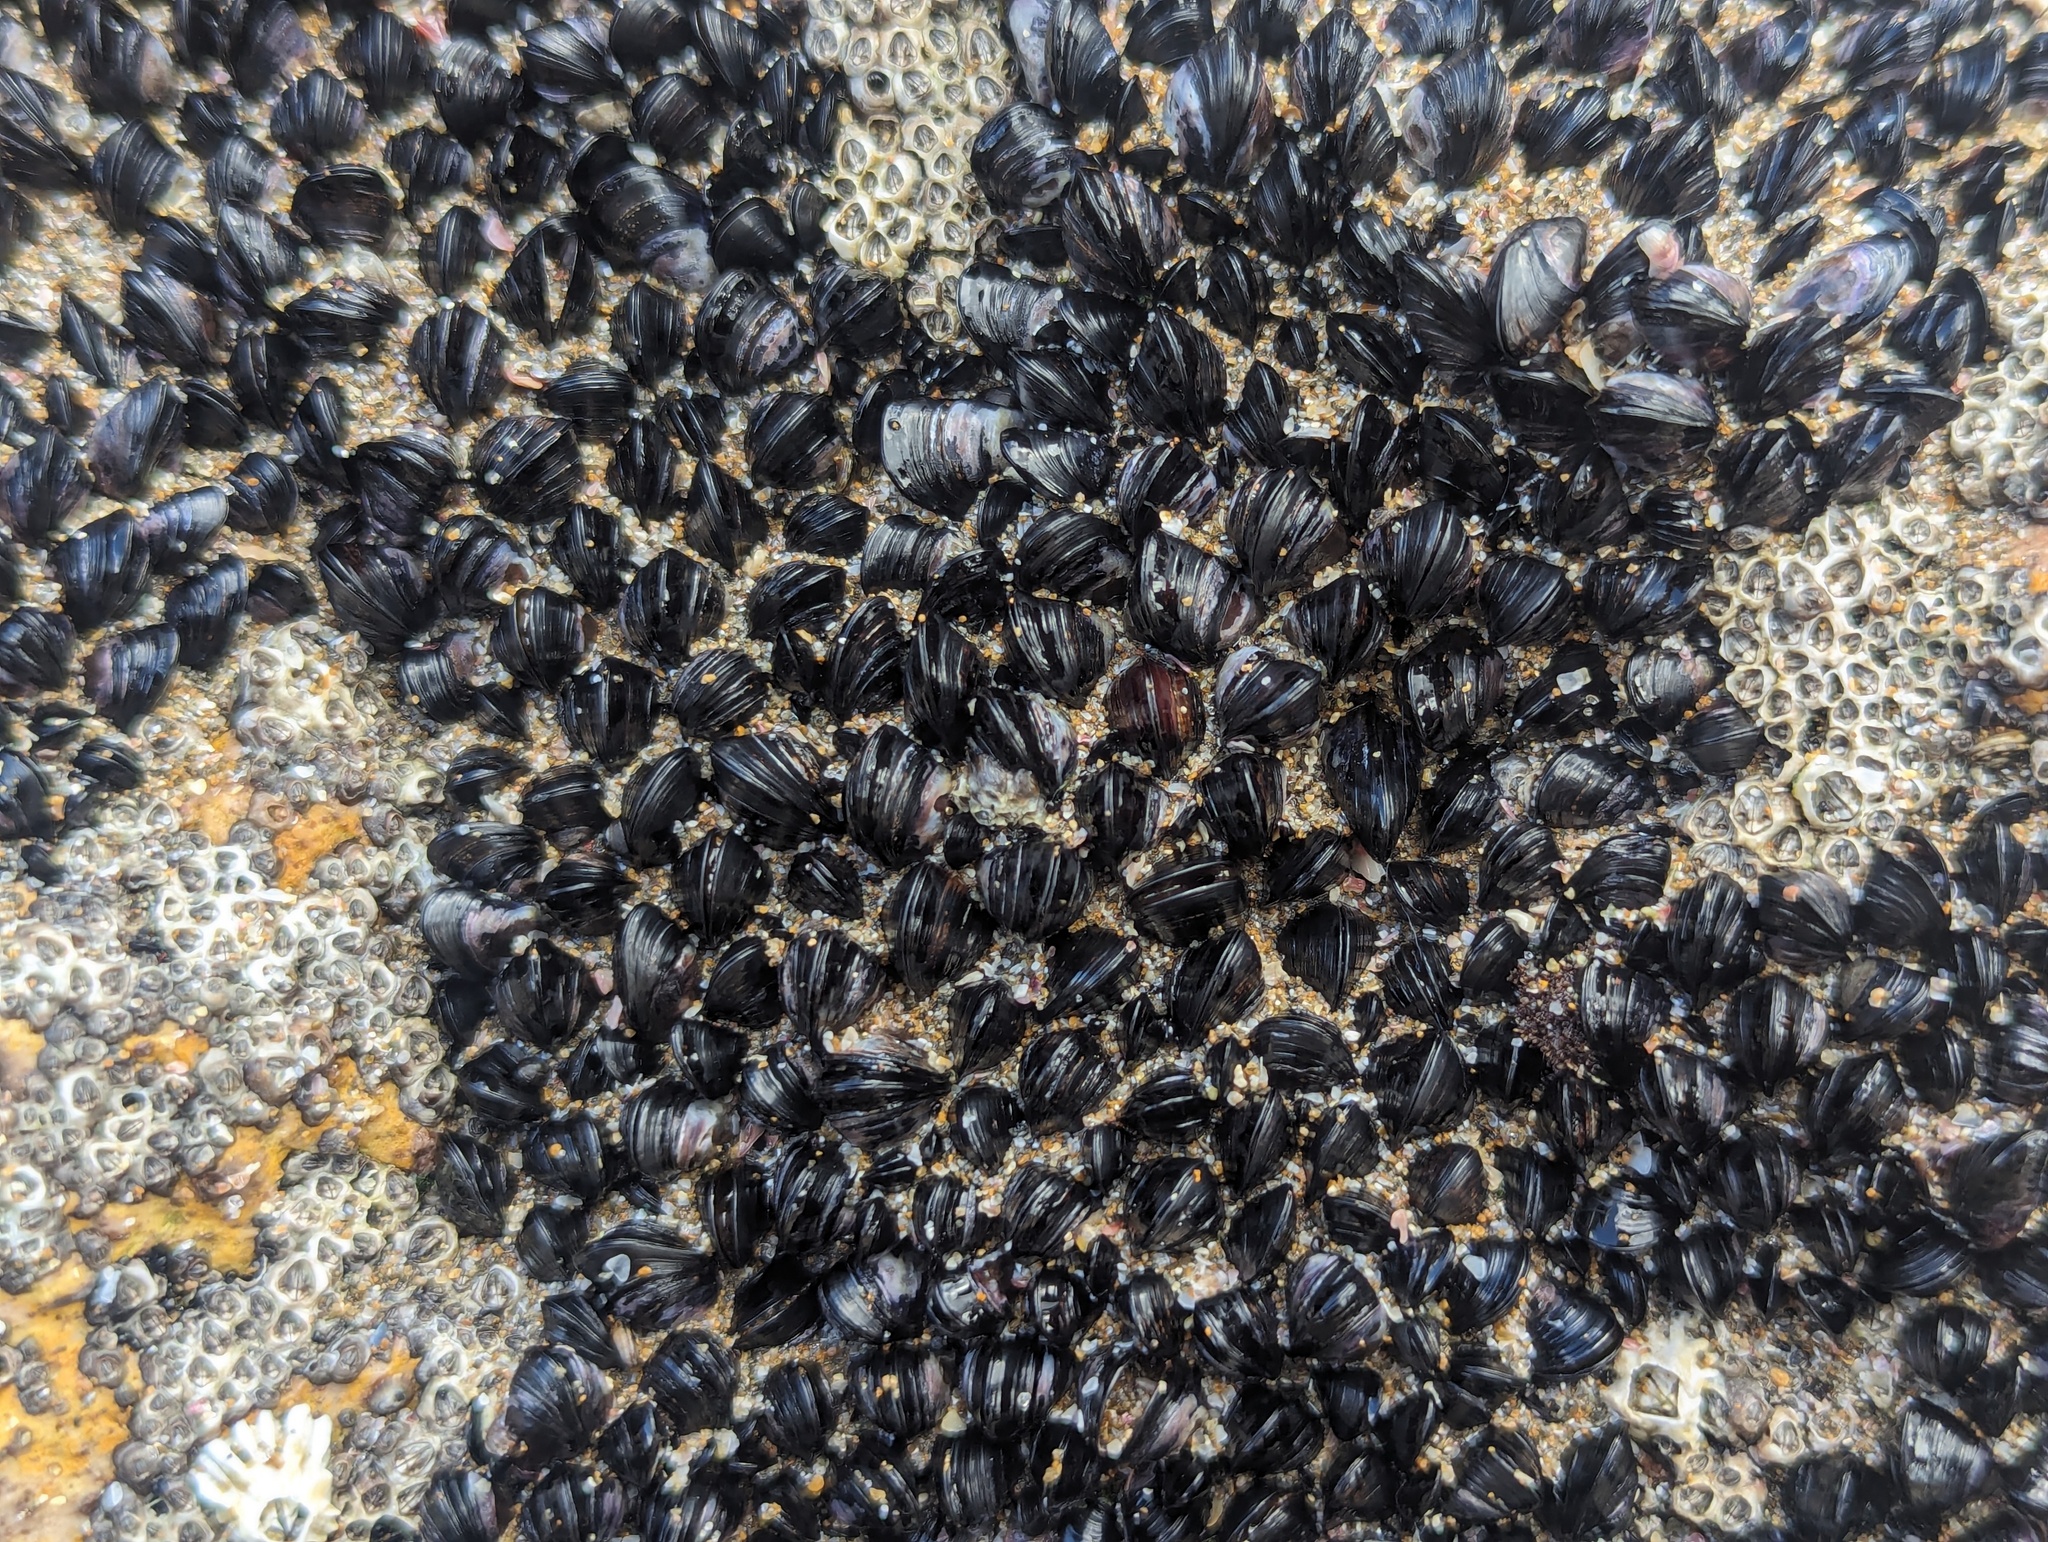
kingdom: Animalia
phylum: Mollusca
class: Bivalvia
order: Mytilida
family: Mytilidae
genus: Xenostrobus
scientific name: Xenostrobus neozelanicus
